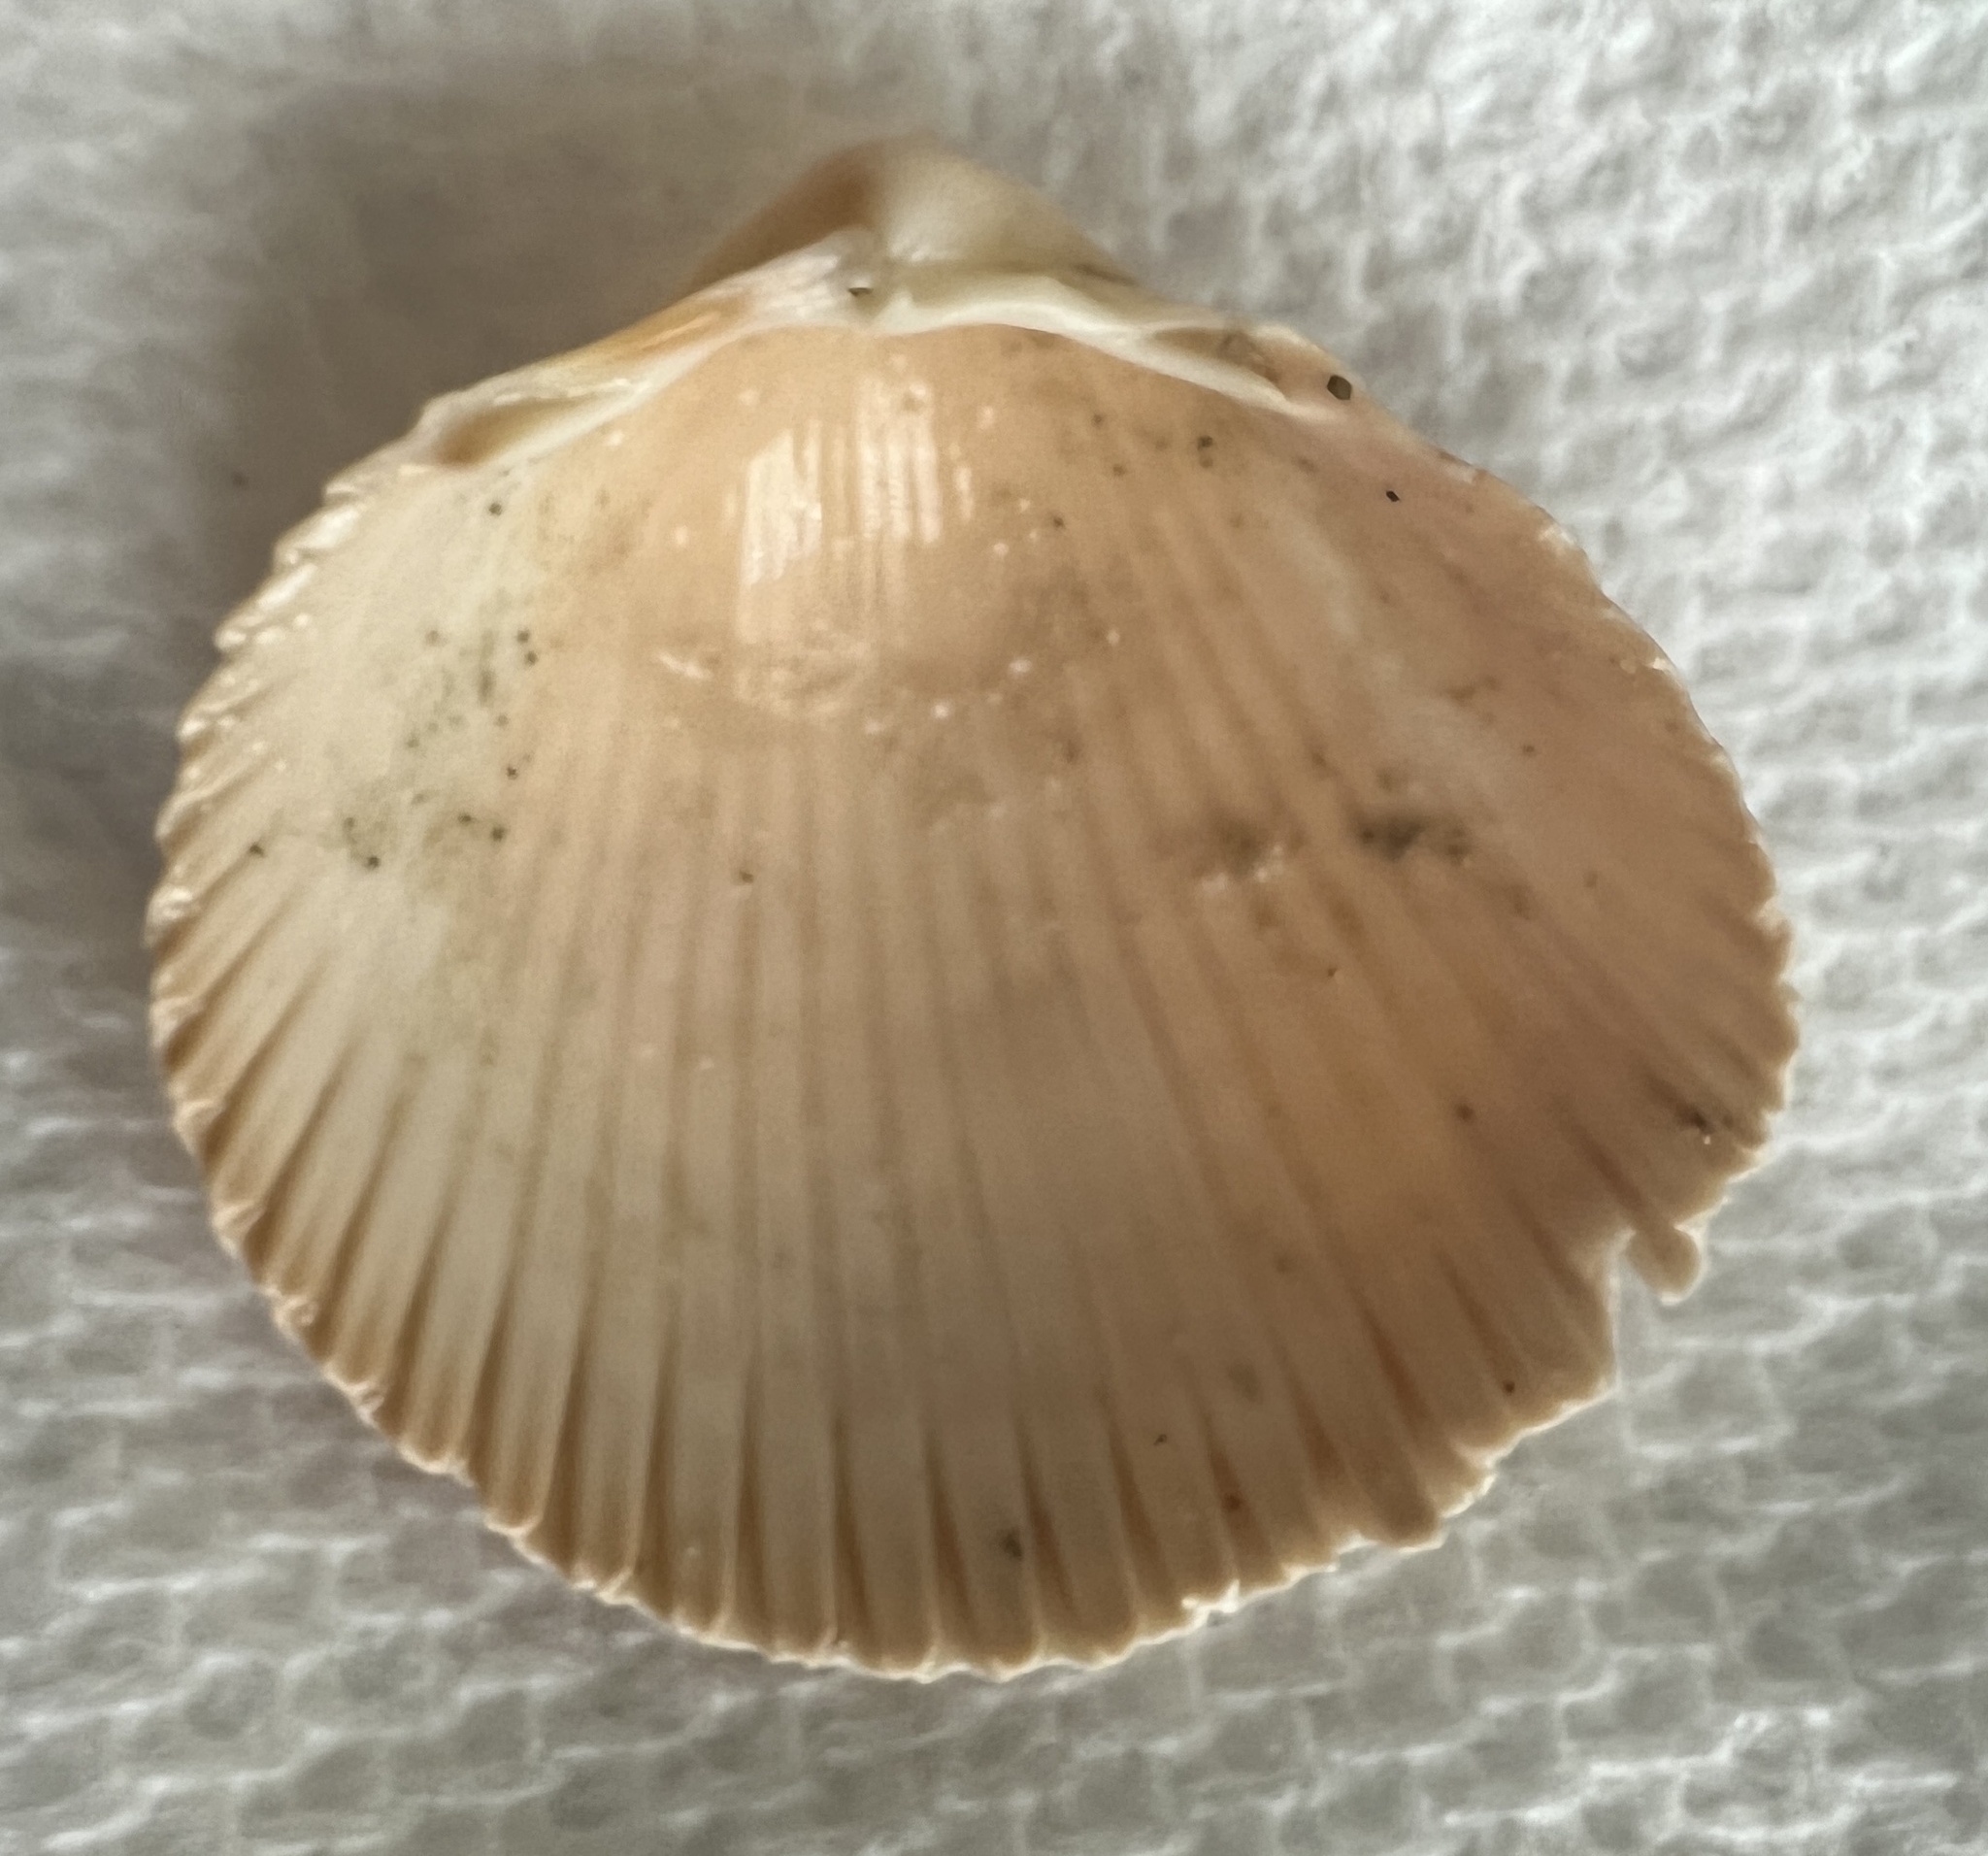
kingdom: Animalia
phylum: Mollusca
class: Bivalvia
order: Cardiida
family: Cardiidae
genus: Dinocardium
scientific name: Dinocardium robustum
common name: Atlantic giant cockle
